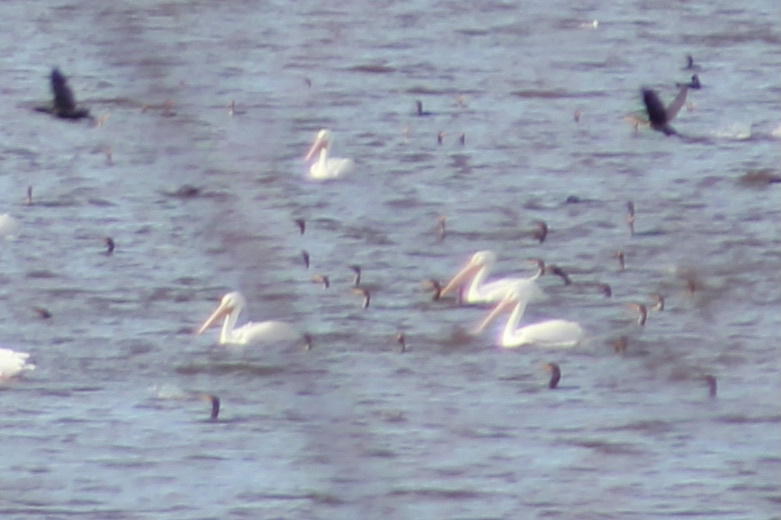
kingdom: Animalia
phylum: Chordata
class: Aves
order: Pelecaniformes
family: Pelecanidae
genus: Pelecanus
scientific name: Pelecanus erythrorhynchos
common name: American white pelican
